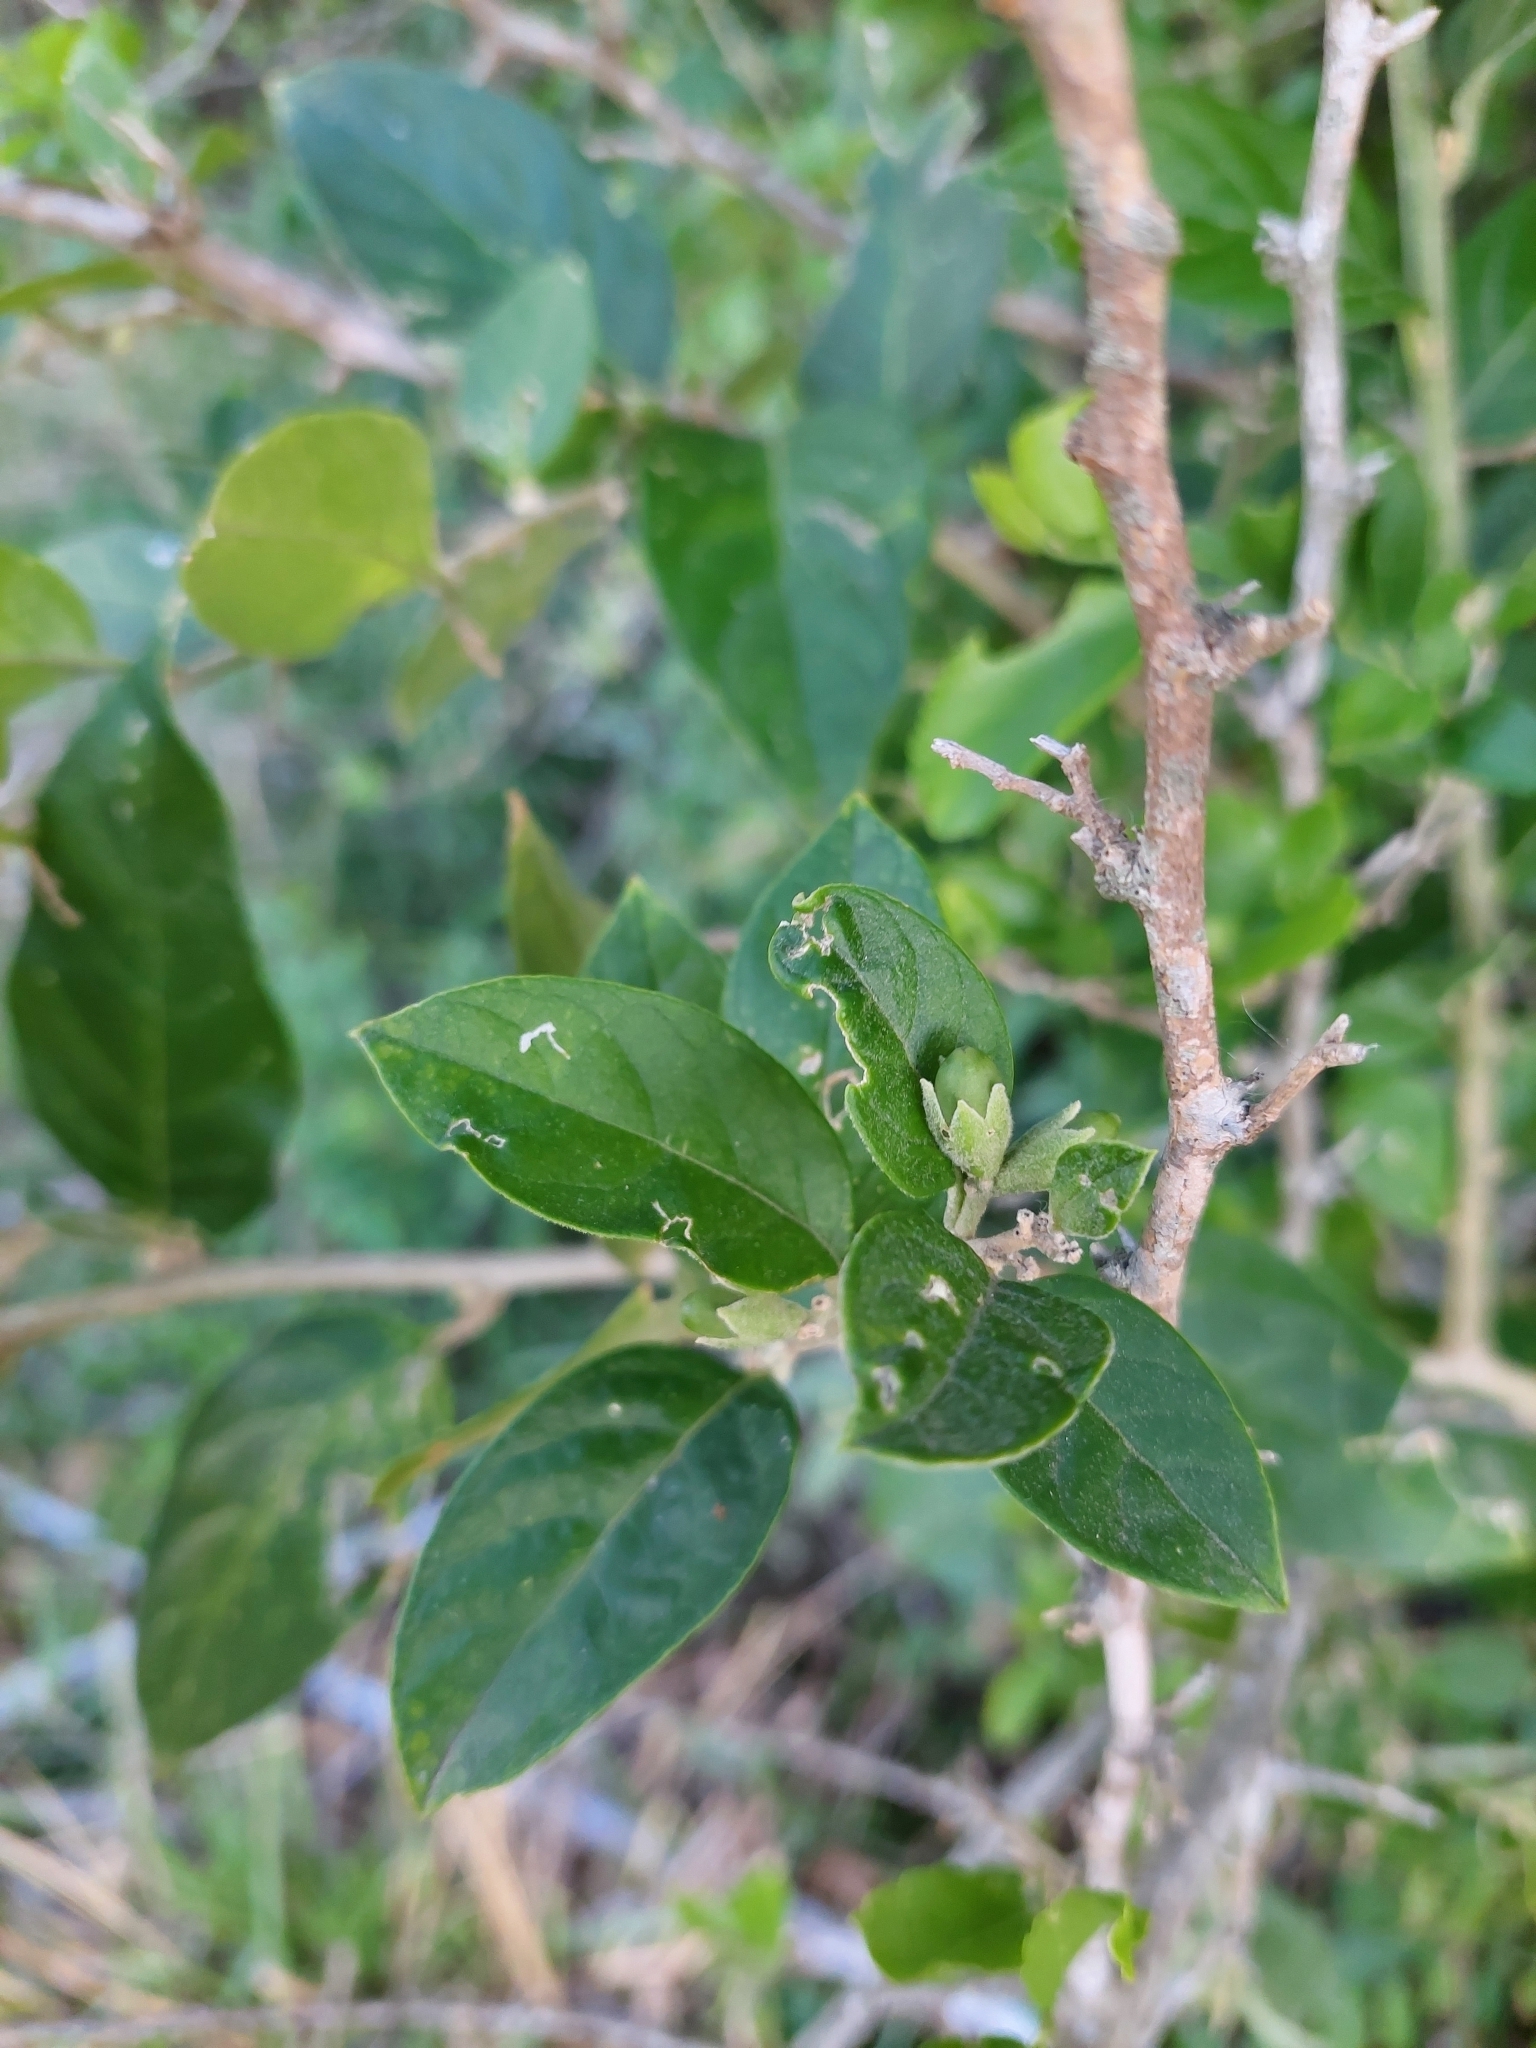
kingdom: Plantae
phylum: Tracheophyta
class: Magnoliopsida
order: Solanales
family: Solanaceae
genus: Cestrum
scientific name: Cestrum strigillatum
